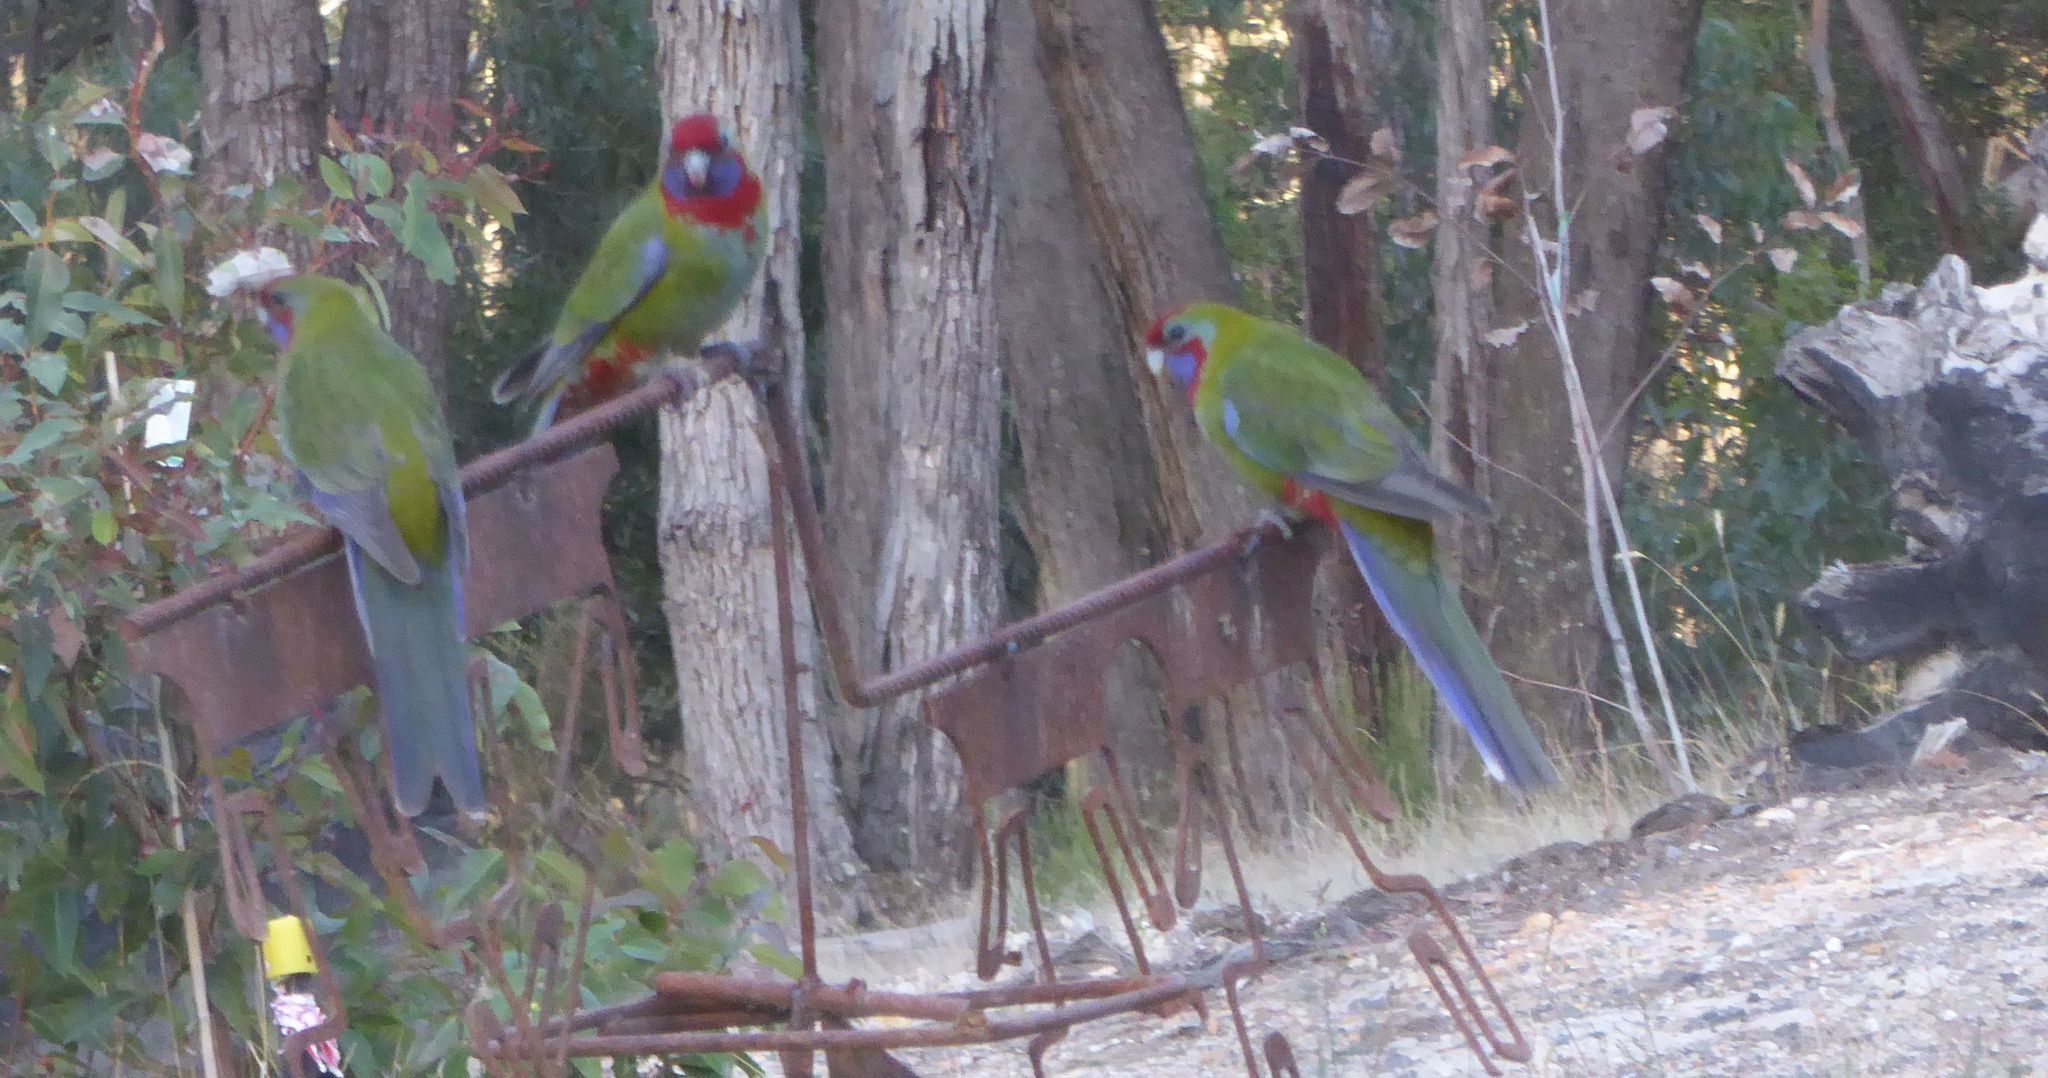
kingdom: Animalia
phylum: Chordata
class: Aves
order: Psittaciformes
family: Psittacidae
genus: Platycercus
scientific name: Platycercus elegans
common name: Crimson rosella
